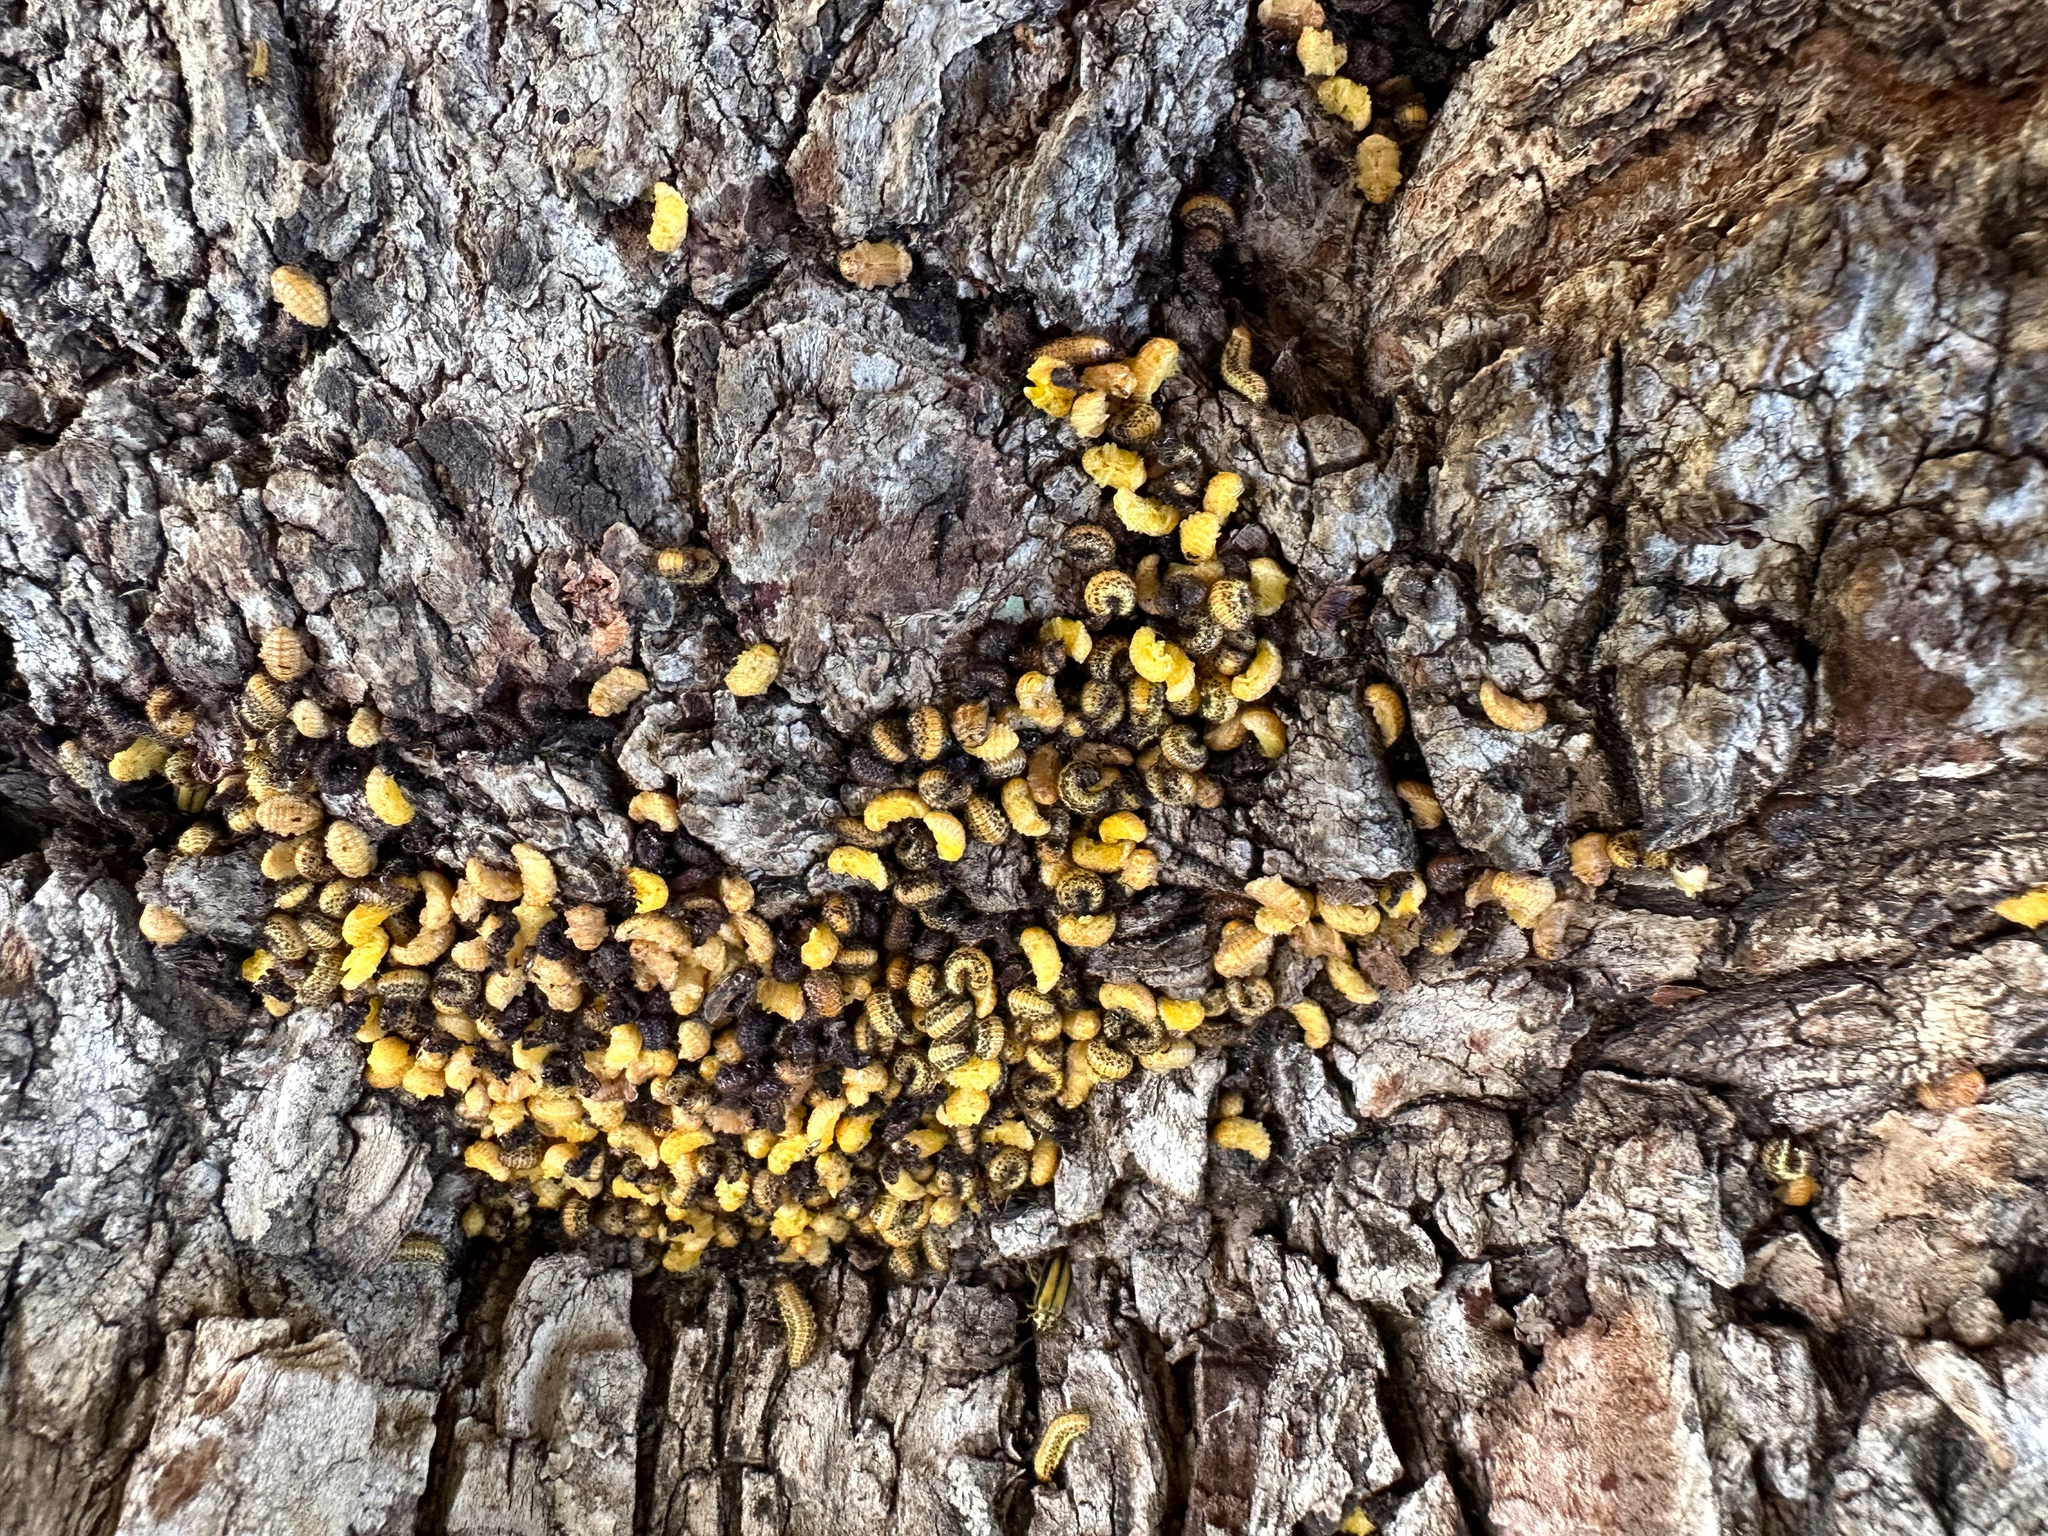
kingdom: Animalia
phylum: Arthropoda
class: Insecta
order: Coleoptera
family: Chrysomelidae
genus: Xanthogaleruca
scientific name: Xanthogaleruca luteola
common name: Elm leaf beetle
